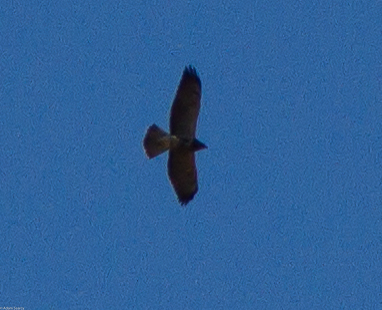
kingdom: Animalia
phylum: Chordata
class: Aves
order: Accipitriformes
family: Accipitridae
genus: Buteo
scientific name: Buteo swainsoni
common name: Swainson's hawk
